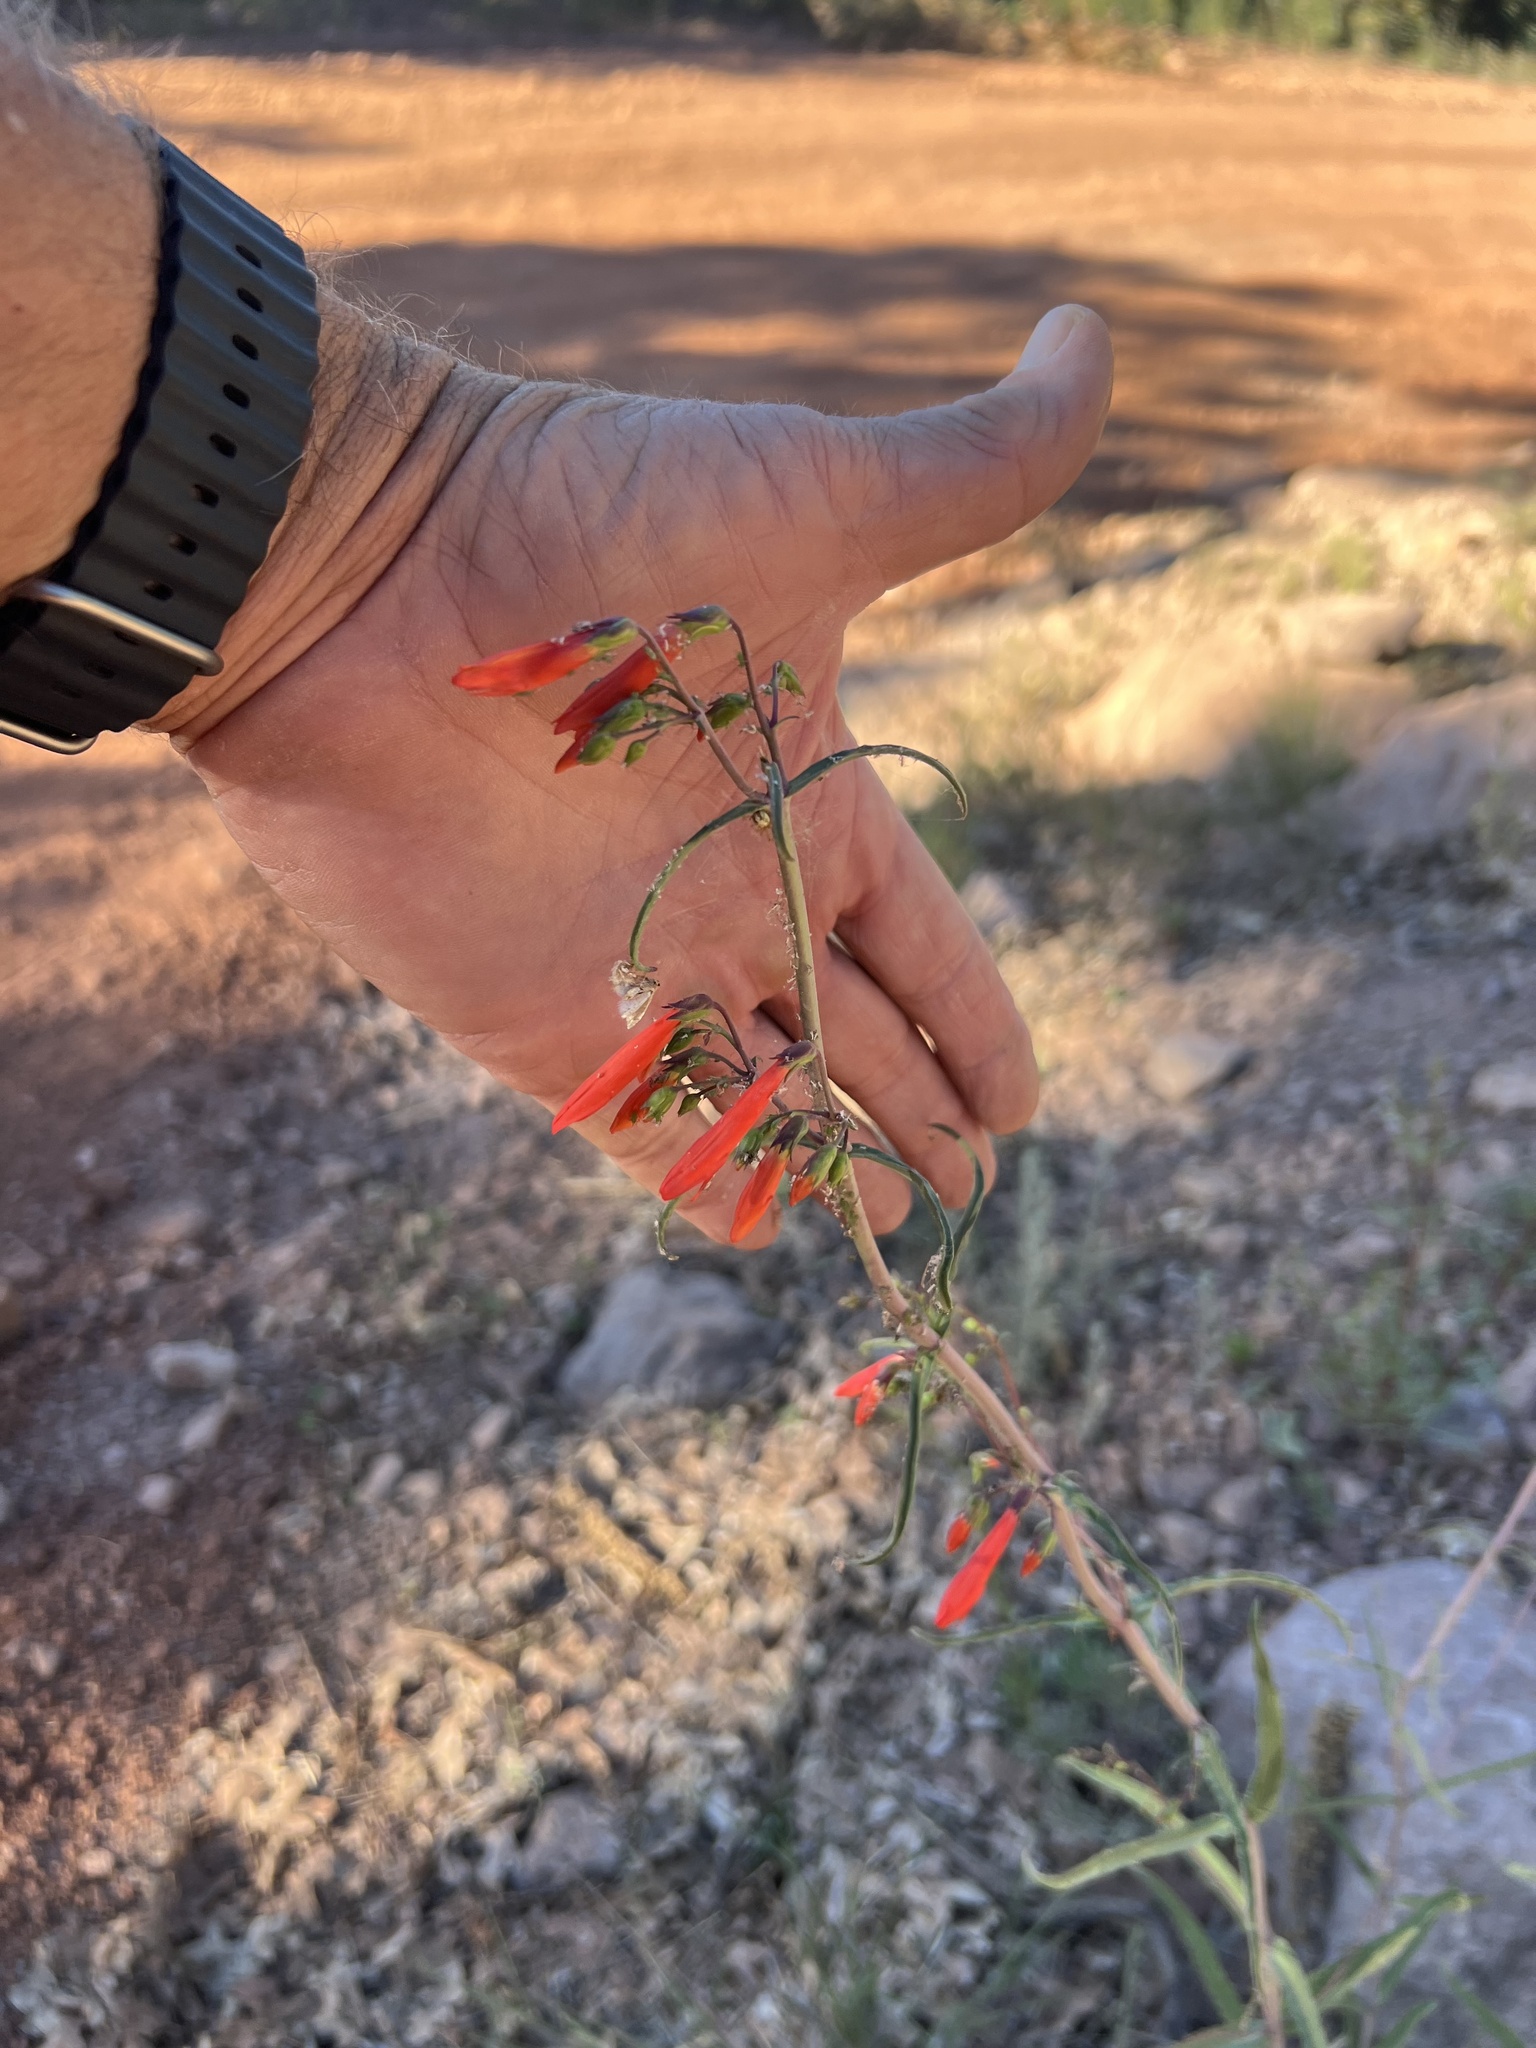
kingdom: Plantae
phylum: Tracheophyta
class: Magnoliopsida
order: Lamiales
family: Plantaginaceae
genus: Penstemon
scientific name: Penstemon barbatus
